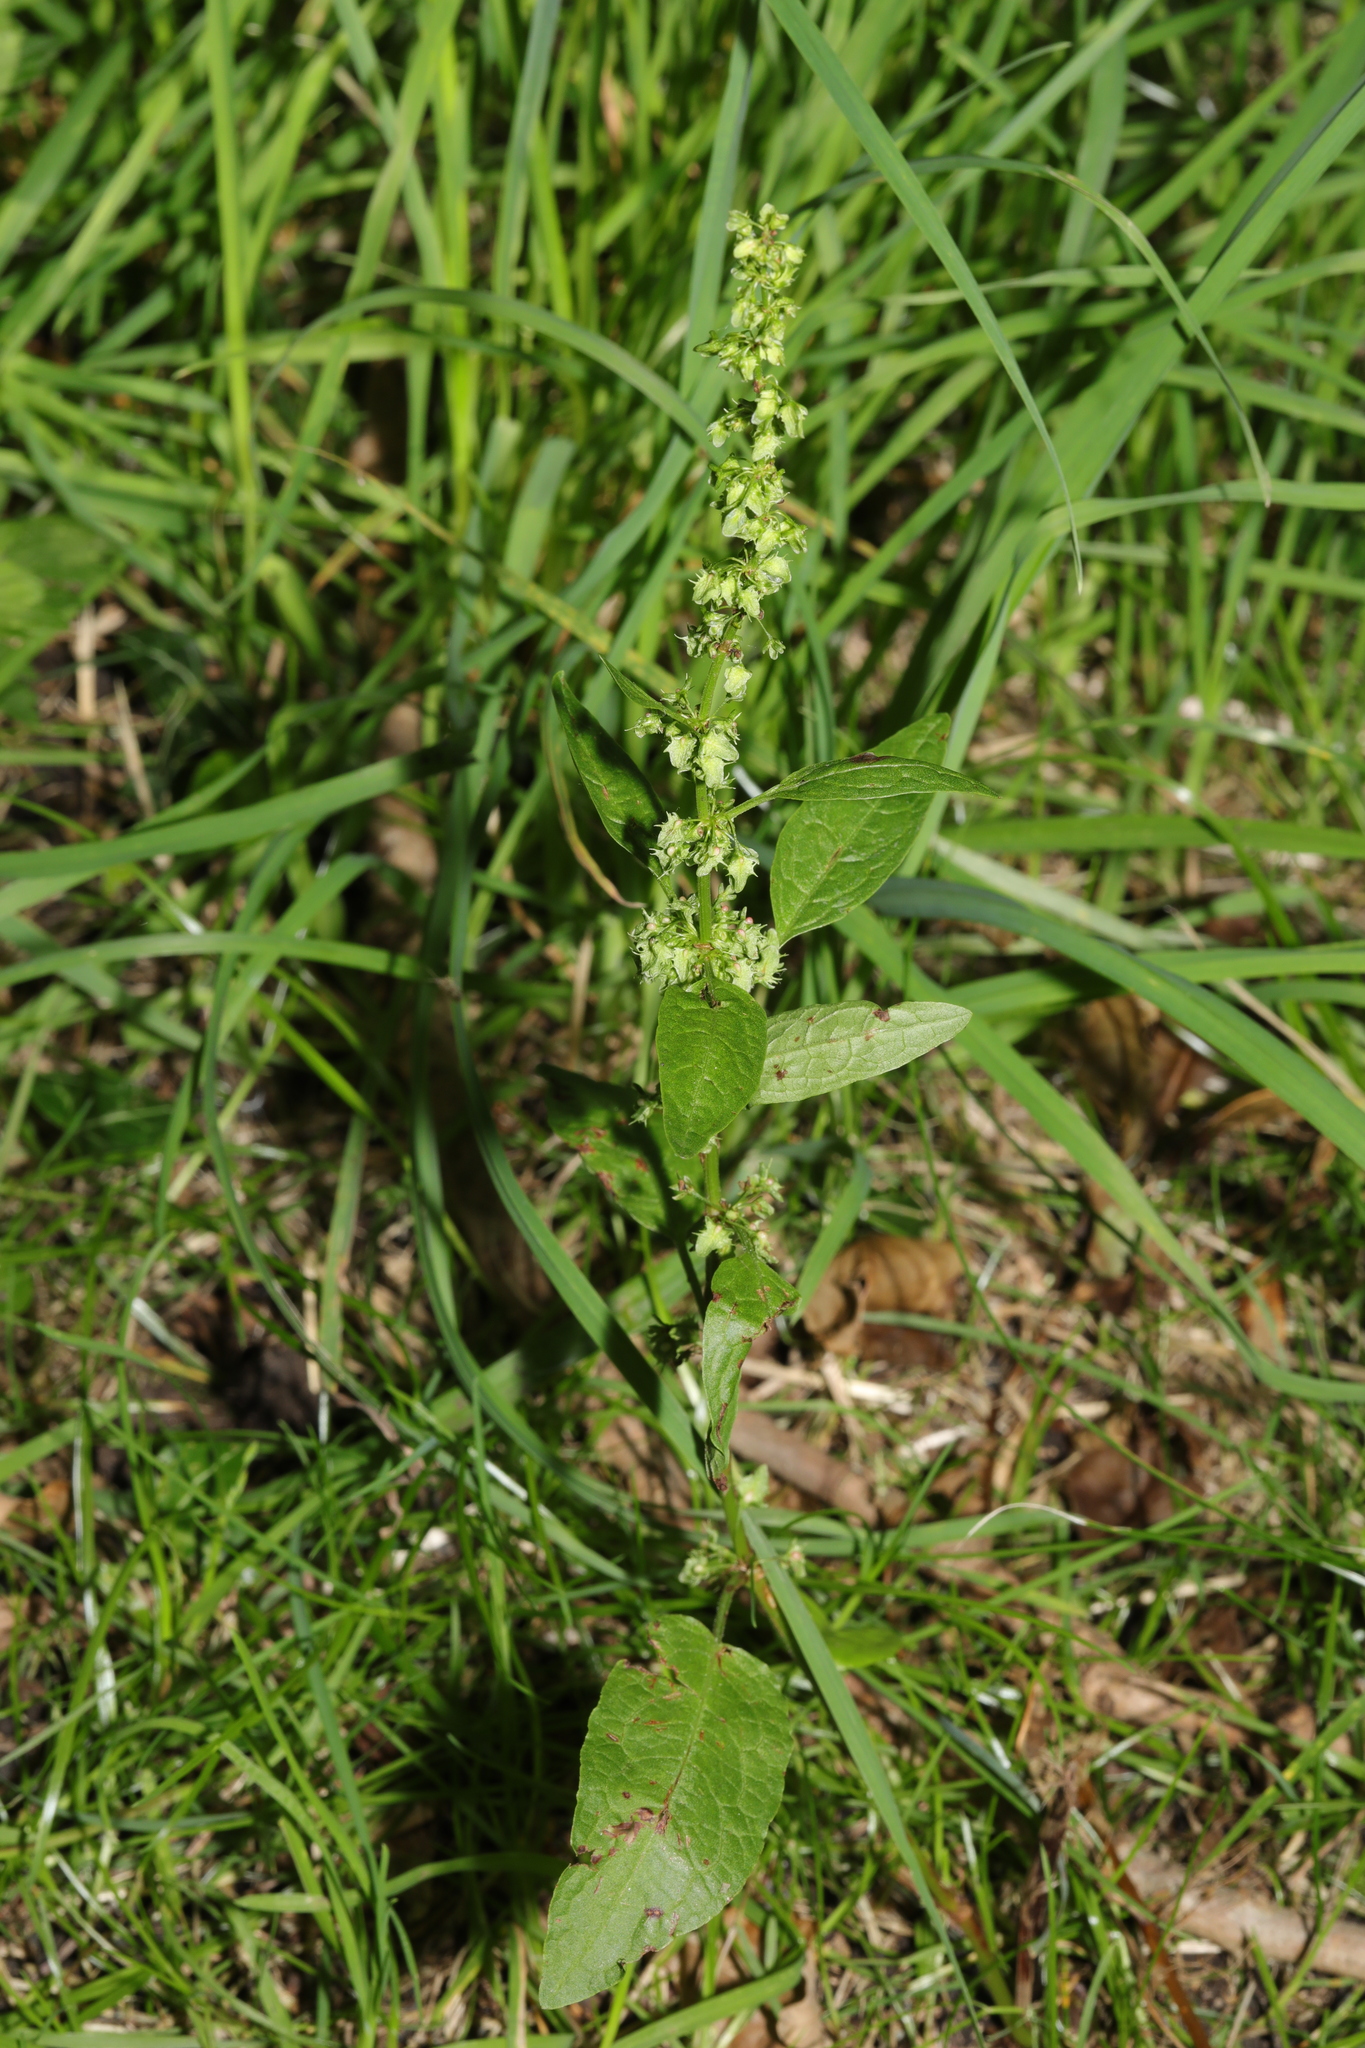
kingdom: Plantae
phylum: Tracheophyta
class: Magnoliopsida
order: Caryophyllales
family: Polygonaceae
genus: Rumex
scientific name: Rumex obtusifolius
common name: Bitter dock
